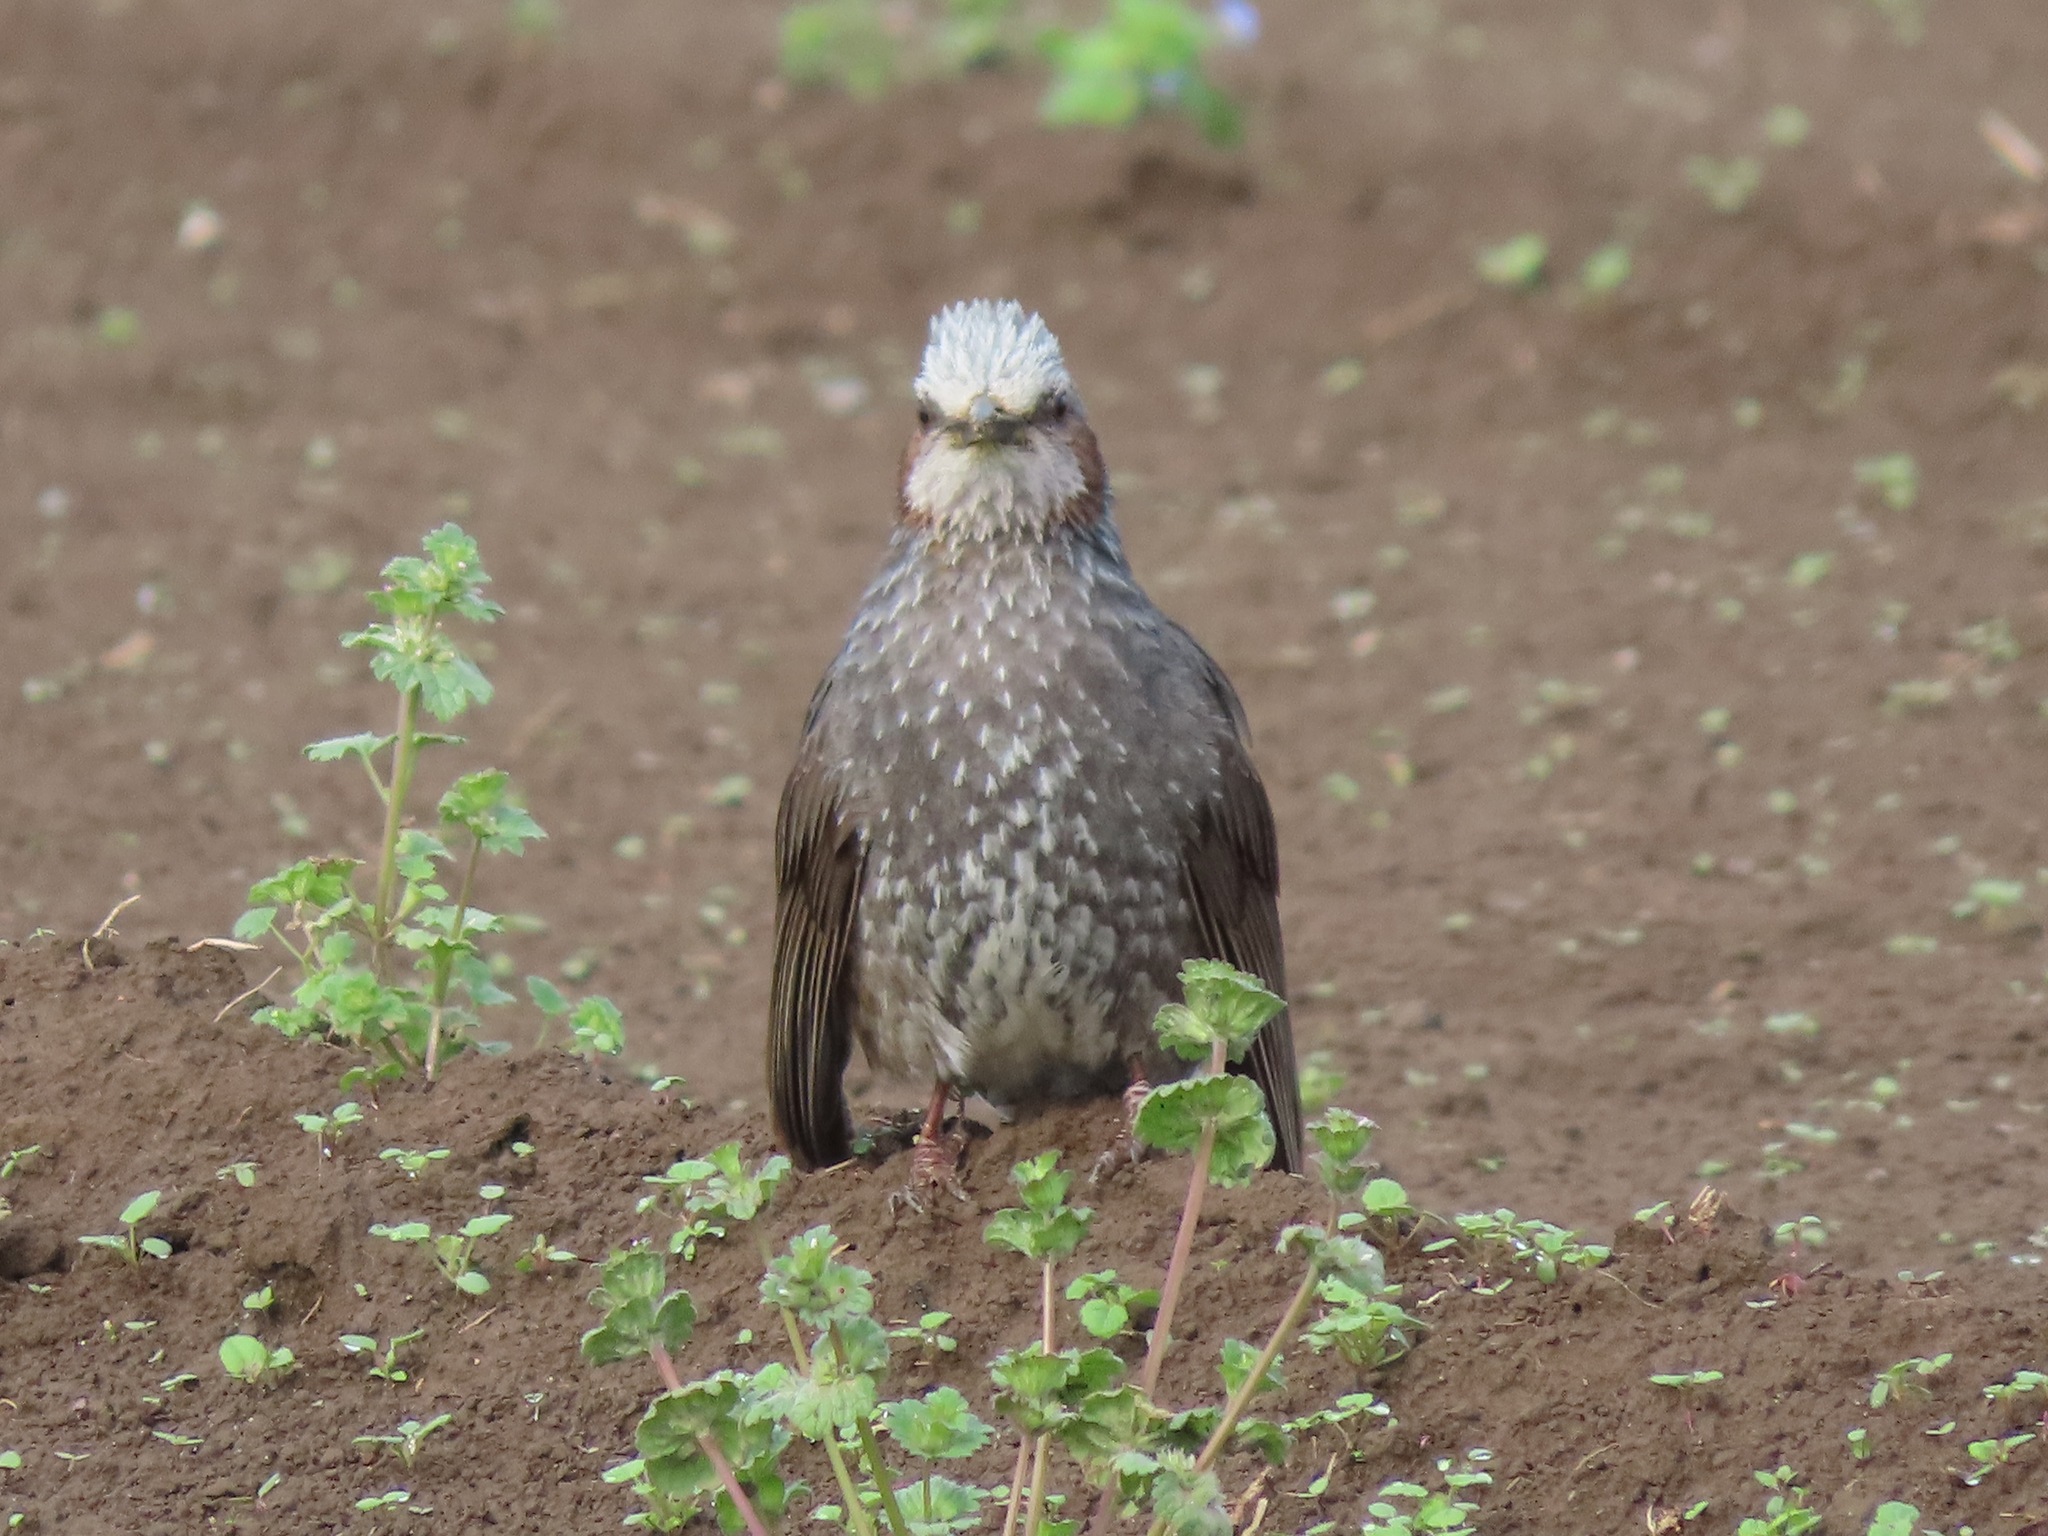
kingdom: Animalia
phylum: Chordata
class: Aves
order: Passeriformes
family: Pycnonotidae
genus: Hypsipetes
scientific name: Hypsipetes amaurotis
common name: Brown-eared bulbul
